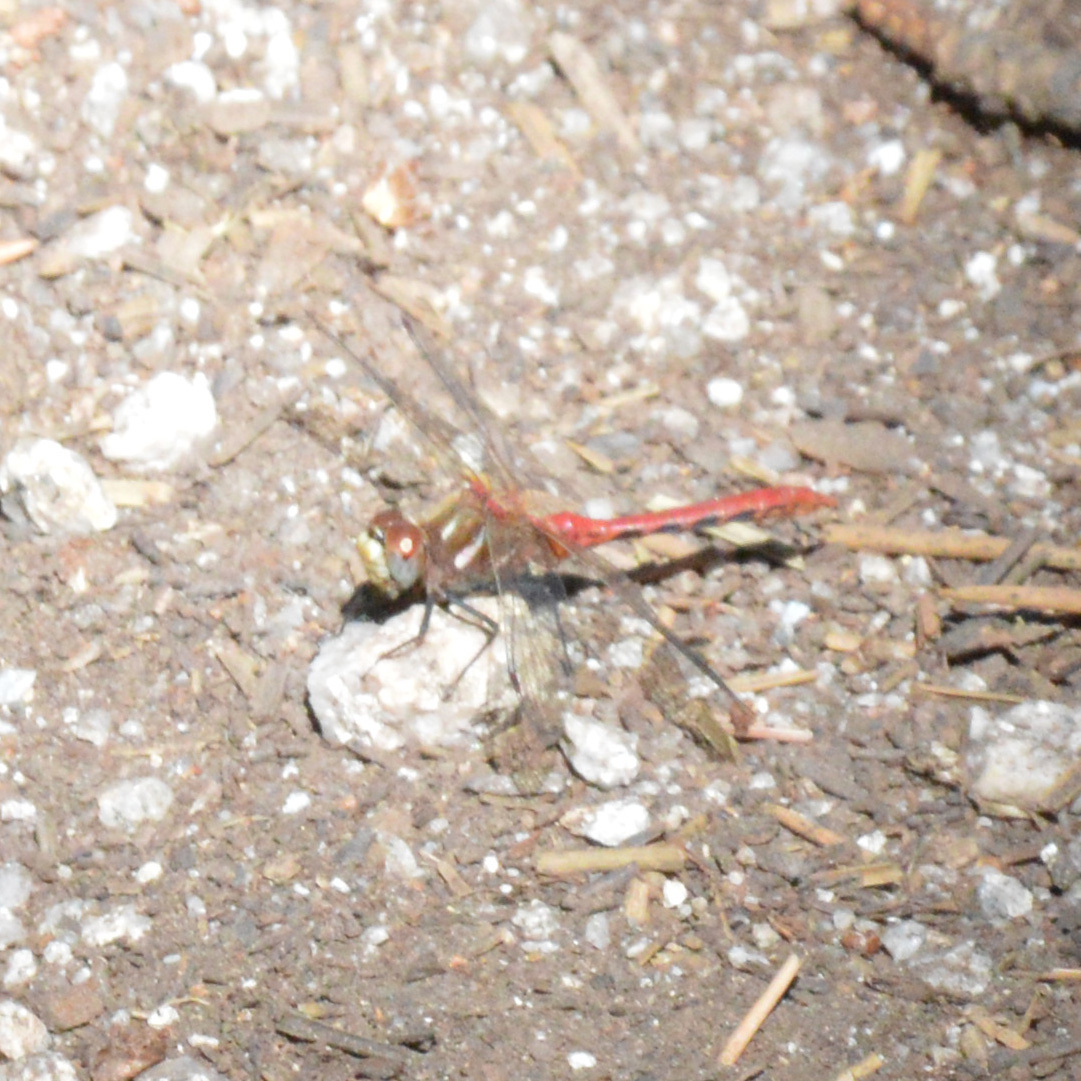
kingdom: Animalia
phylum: Arthropoda
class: Insecta
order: Odonata
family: Libellulidae
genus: Sympetrum
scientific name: Sympetrum pallipes
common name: Striped meadowhawk
